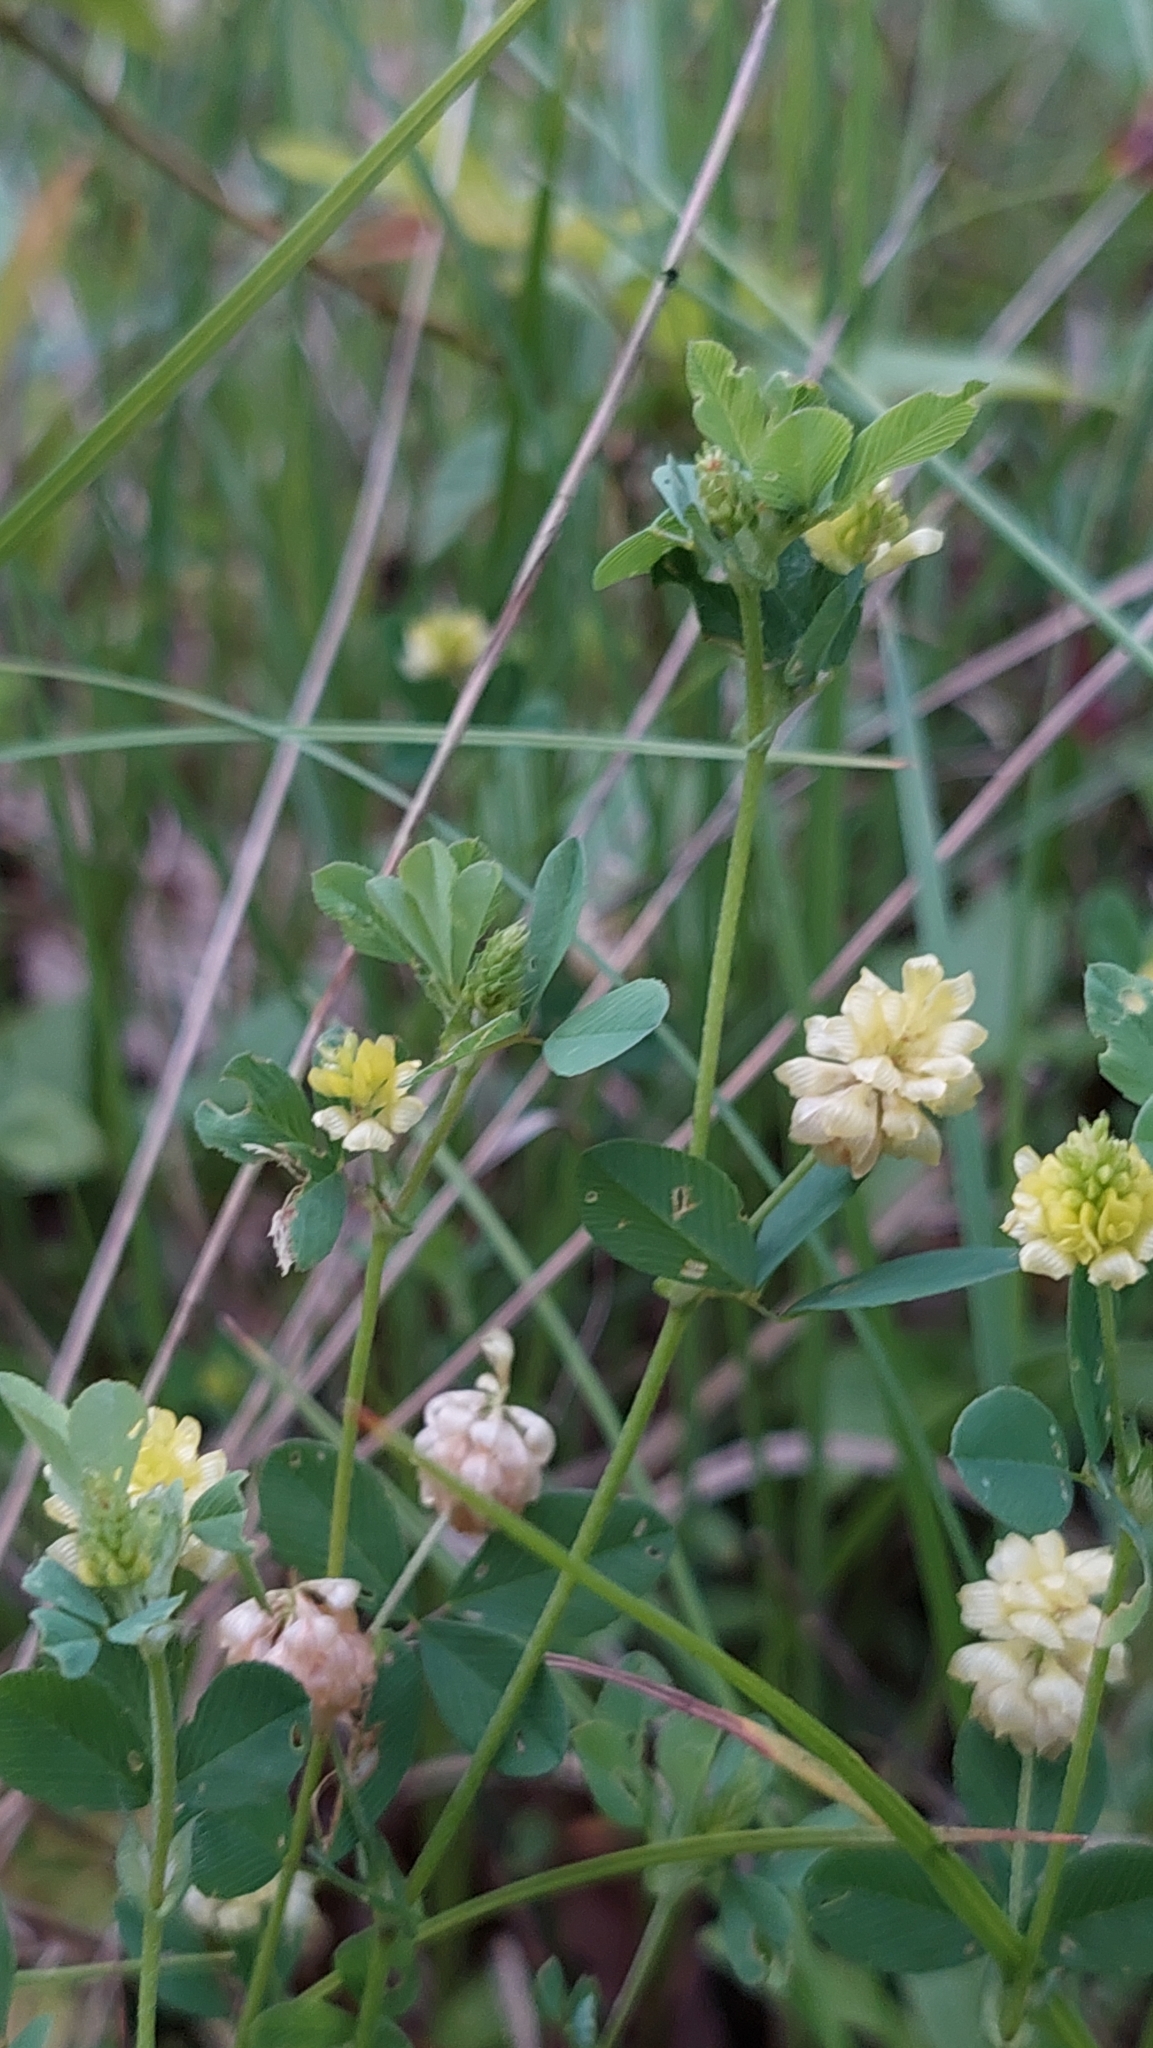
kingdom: Plantae
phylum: Tracheophyta
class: Magnoliopsida
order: Fabales
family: Fabaceae
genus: Trifolium
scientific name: Trifolium campestre
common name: Field clover
